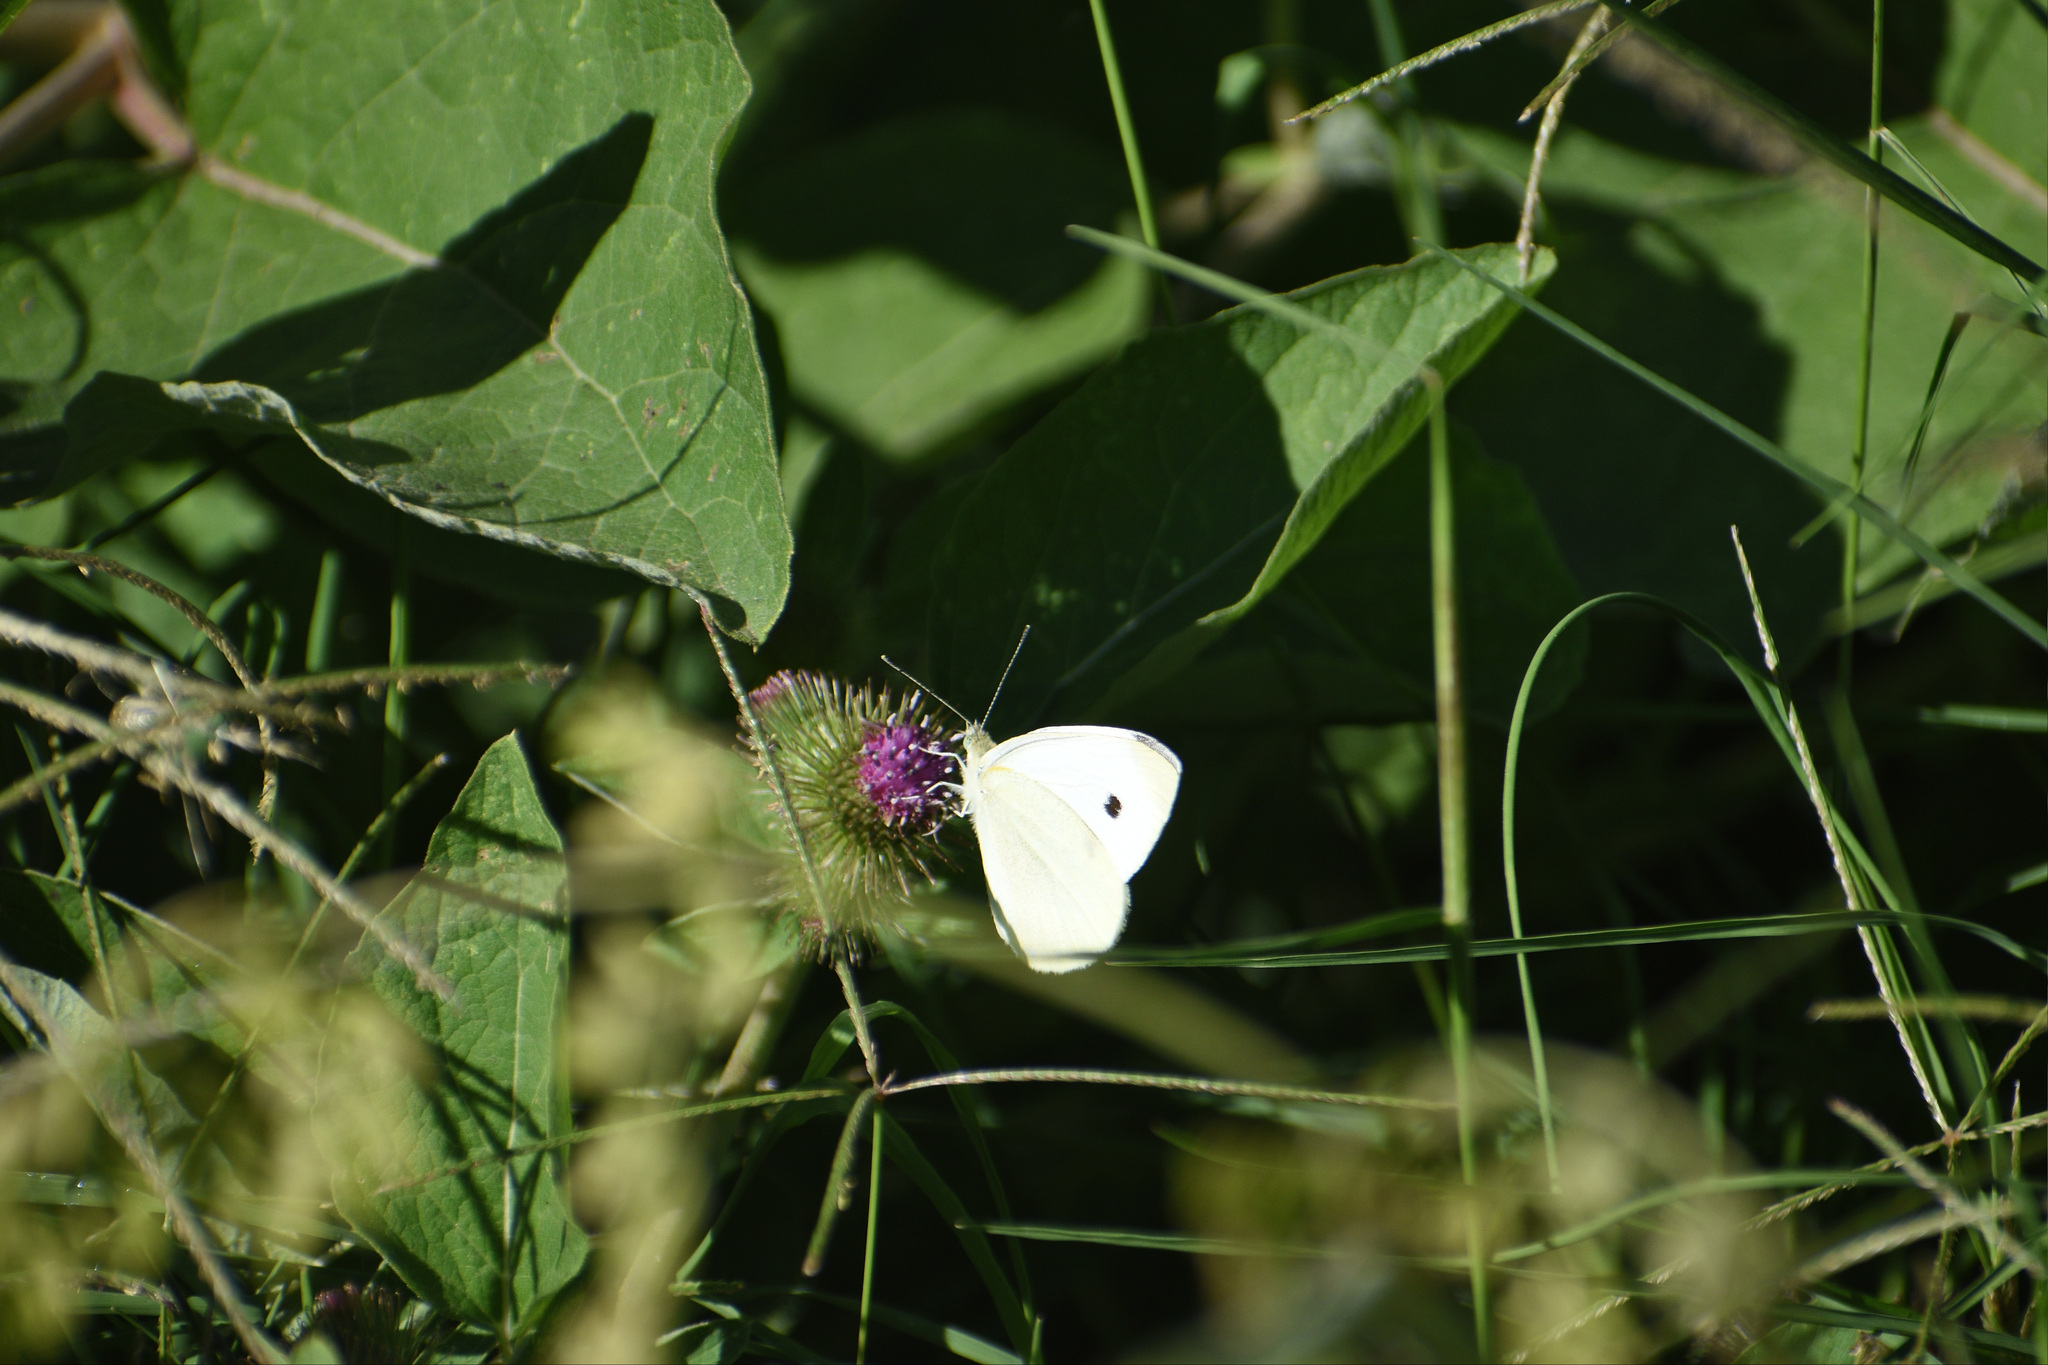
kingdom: Animalia
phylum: Arthropoda
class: Insecta
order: Lepidoptera
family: Pieridae
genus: Pieris
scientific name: Pieris rapae
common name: Small white
